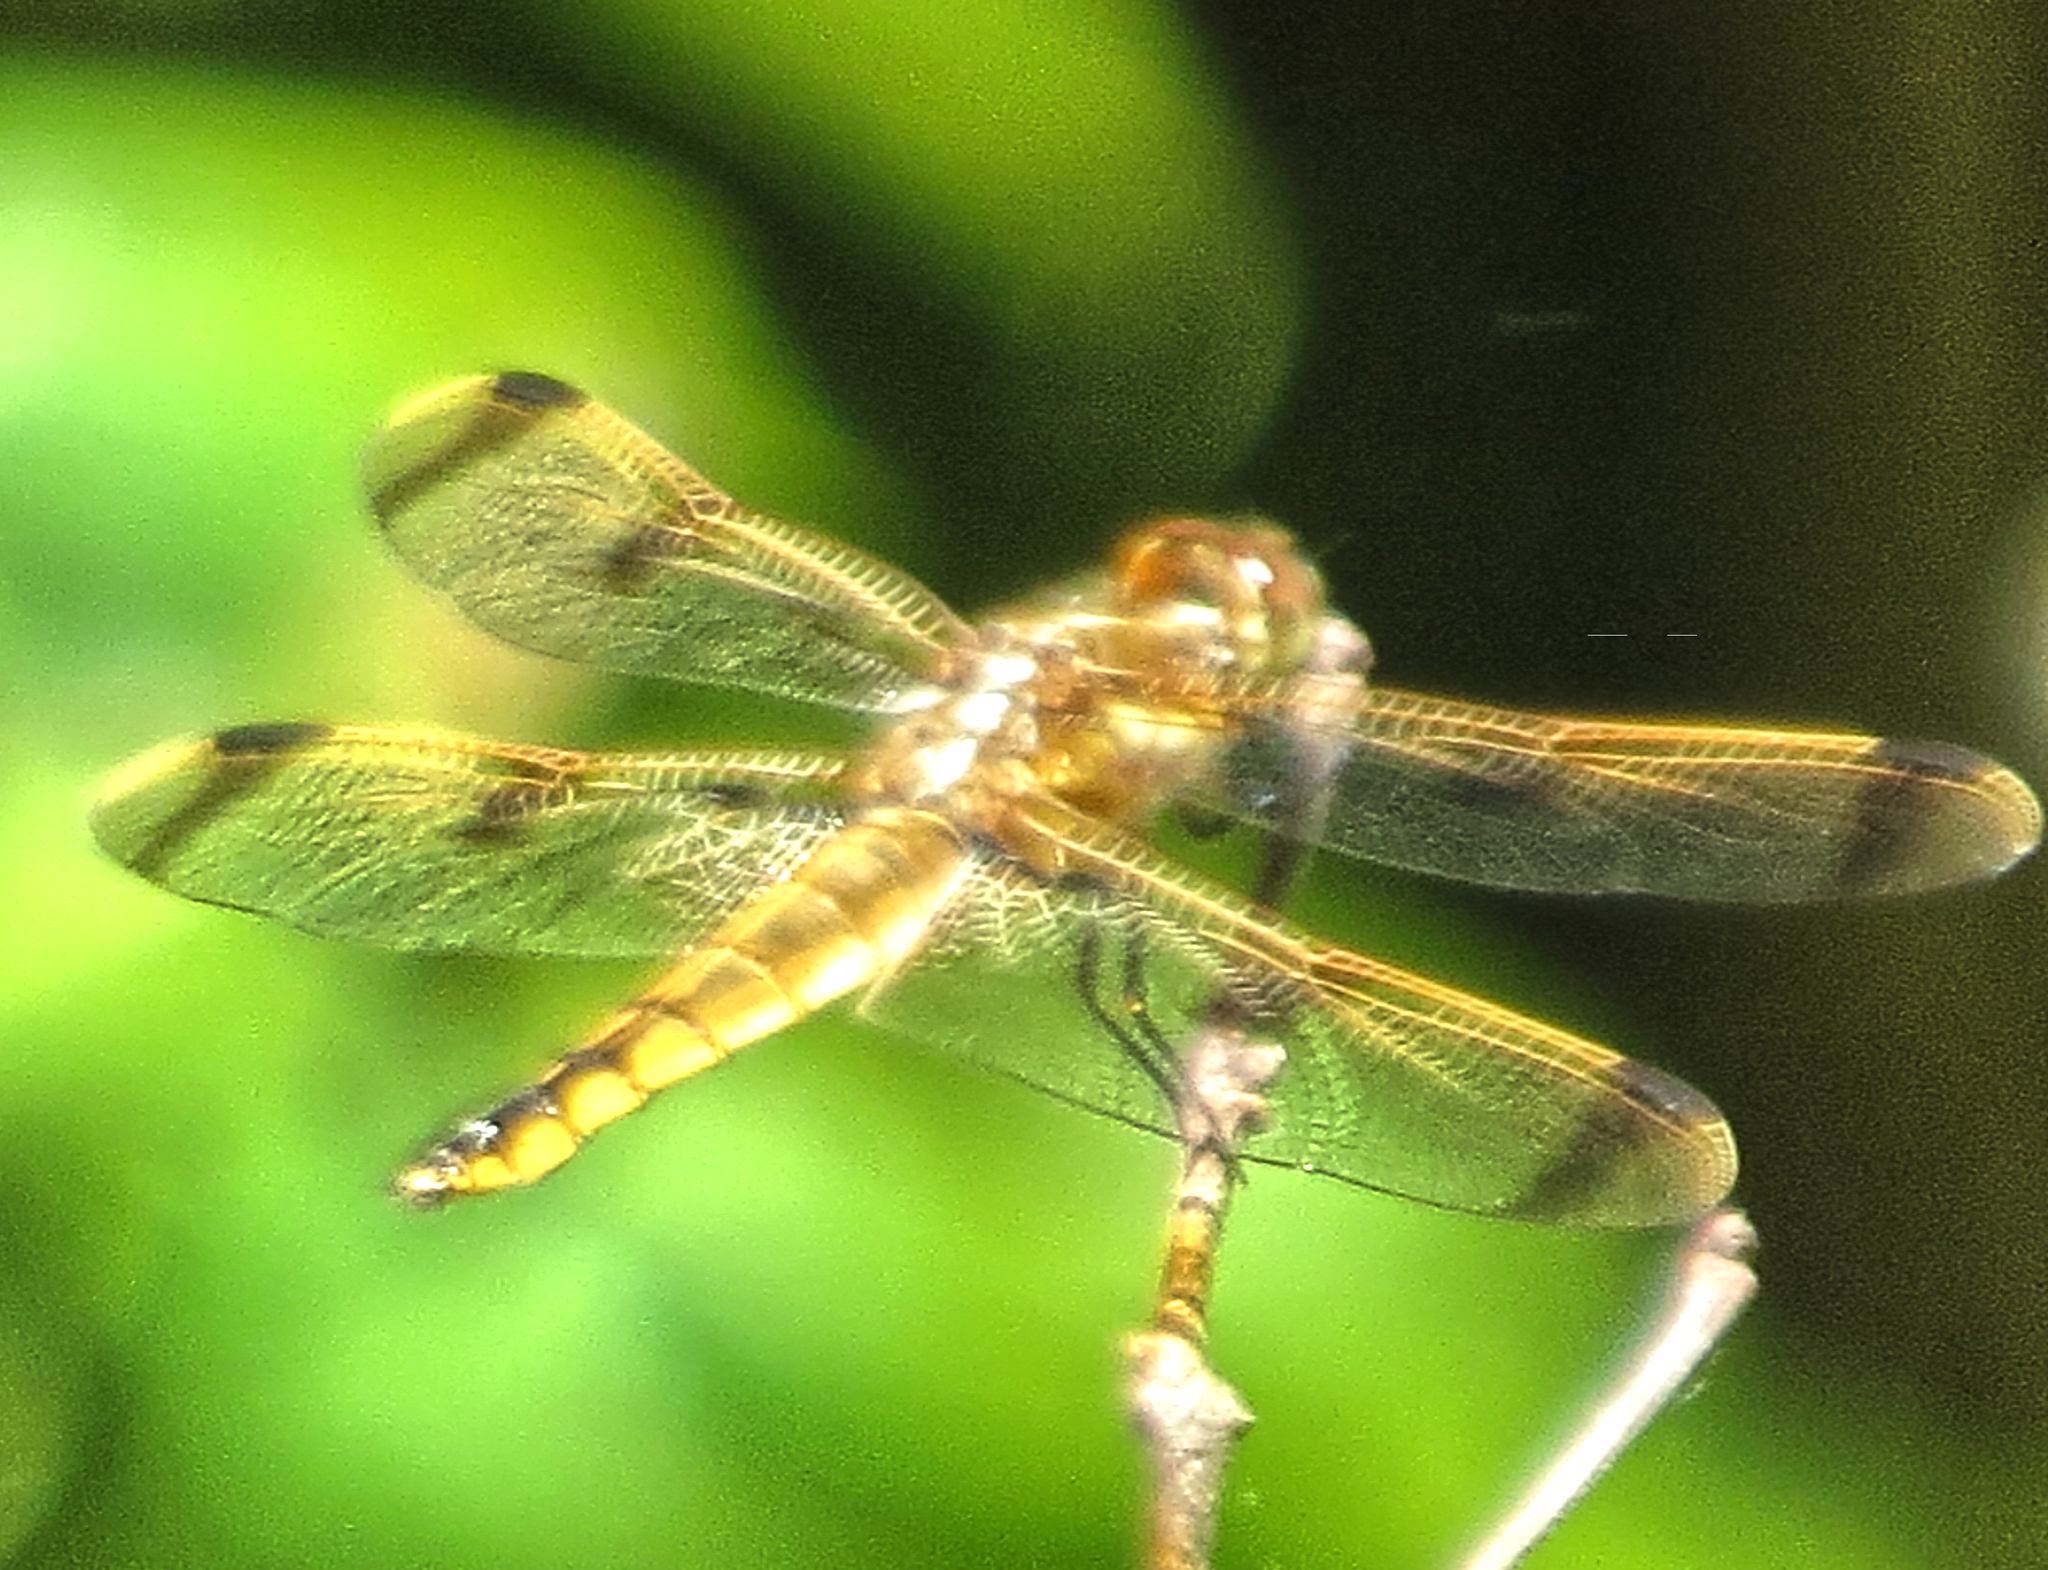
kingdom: Animalia
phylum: Arthropoda
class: Insecta
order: Odonata
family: Libellulidae
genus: Libellula
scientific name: Libellula semifasciata
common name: Painted skimmer
